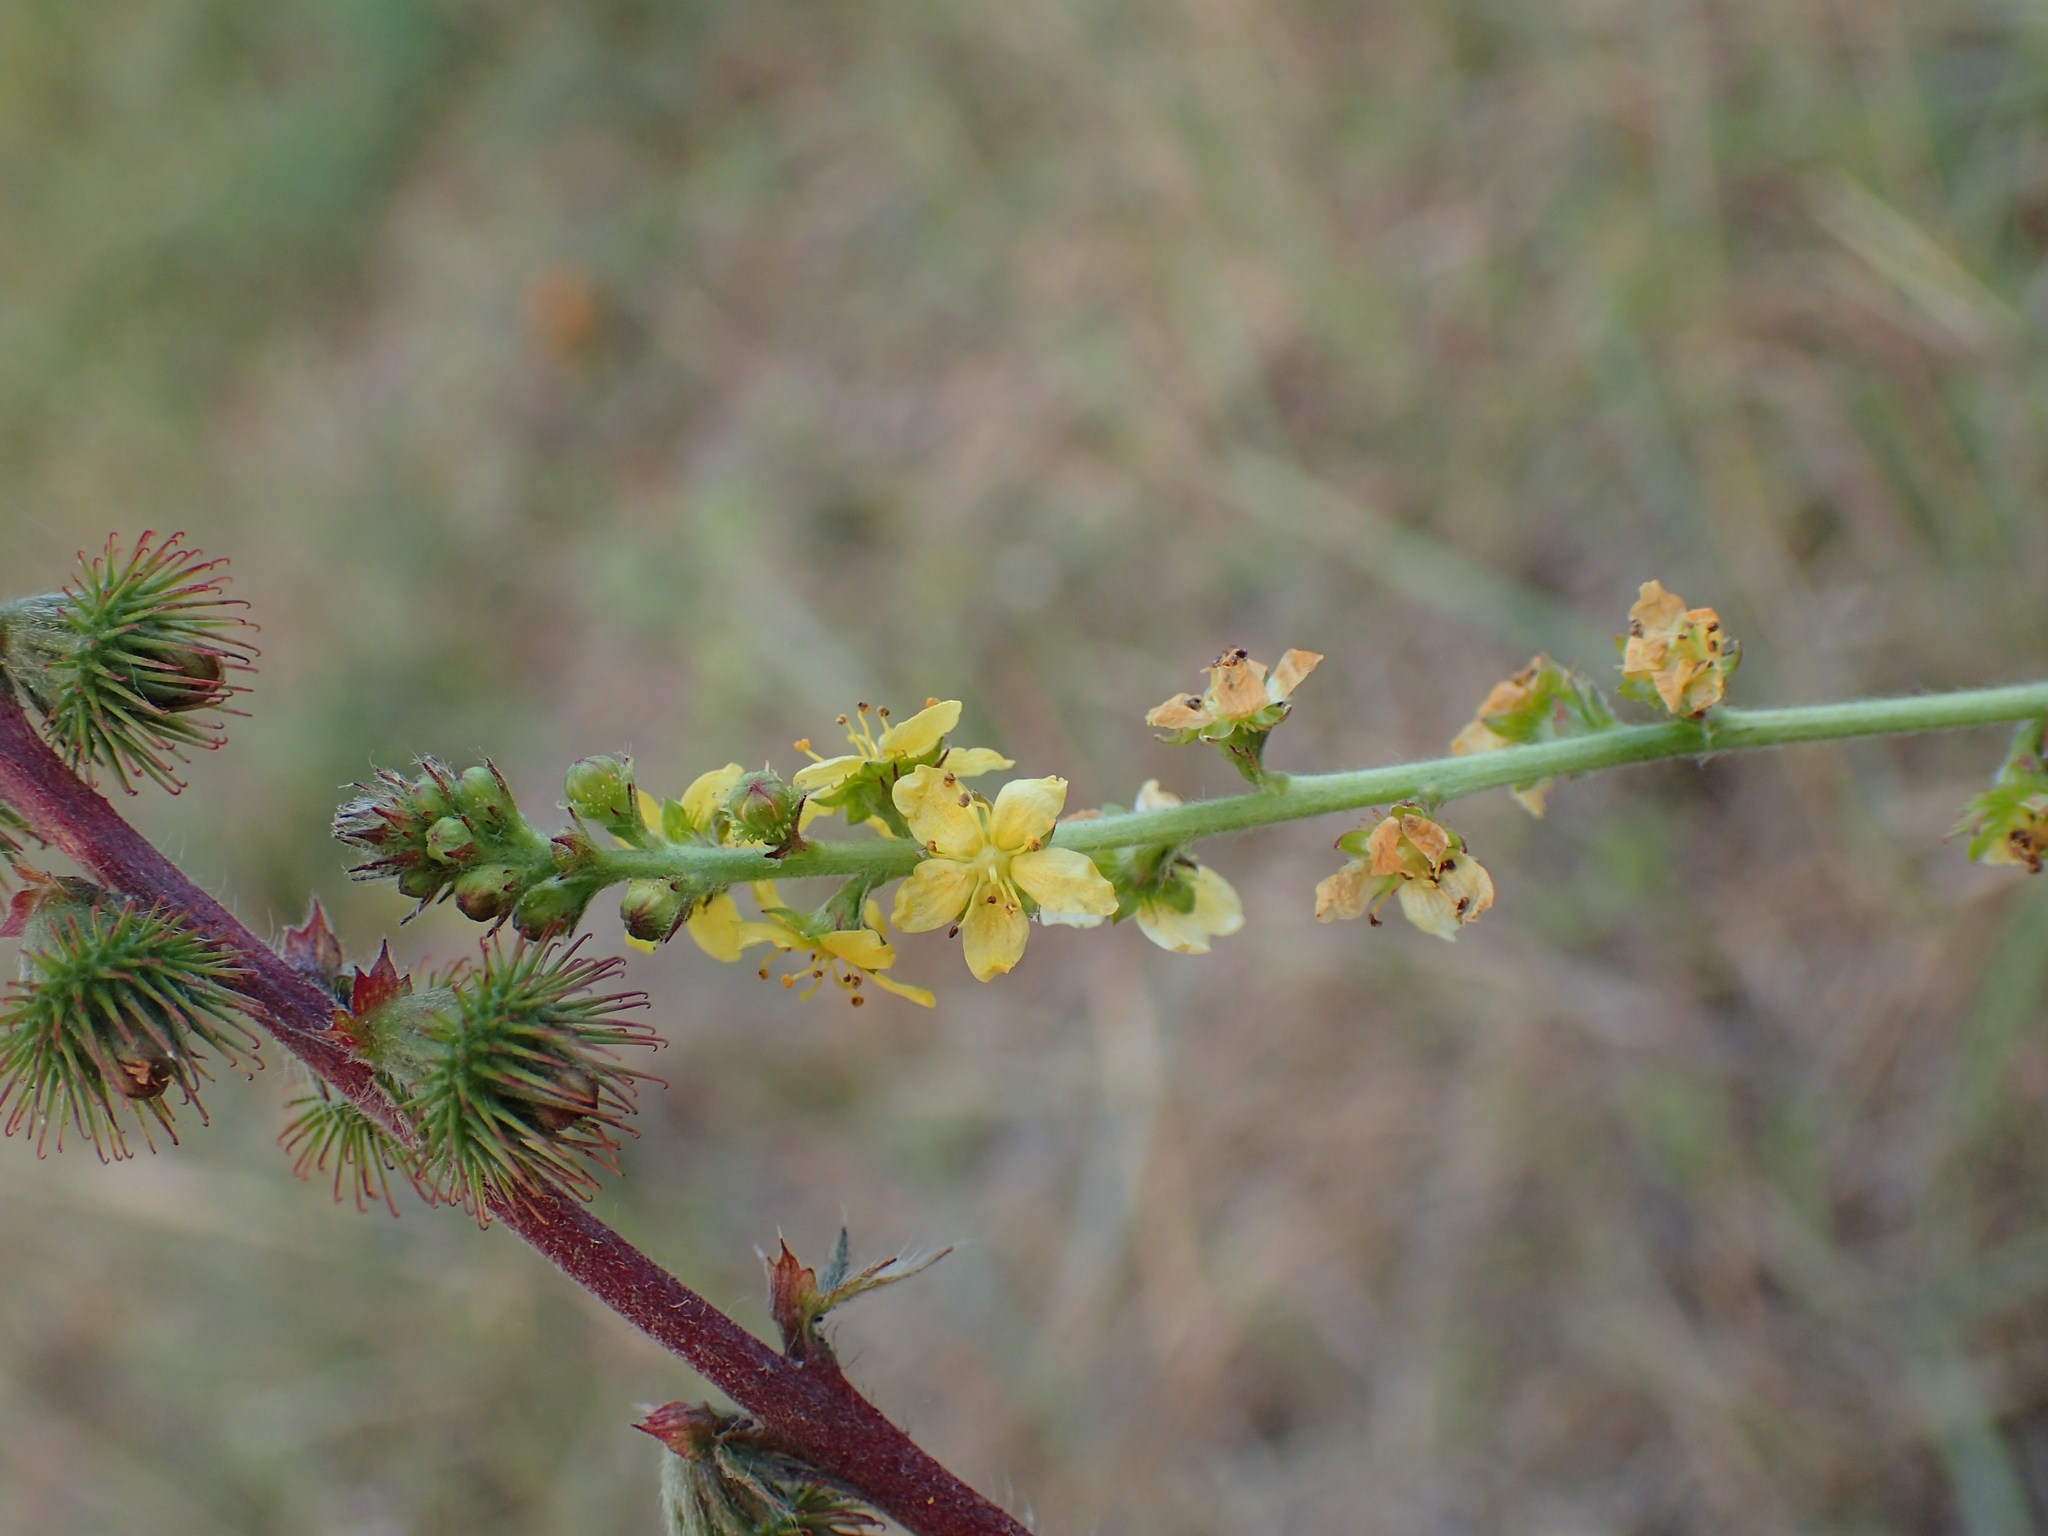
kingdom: Plantae
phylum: Tracheophyta
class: Magnoliopsida
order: Rosales
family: Rosaceae
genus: Agrimonia
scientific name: Agrimonia eupatoria
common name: Agrimony
